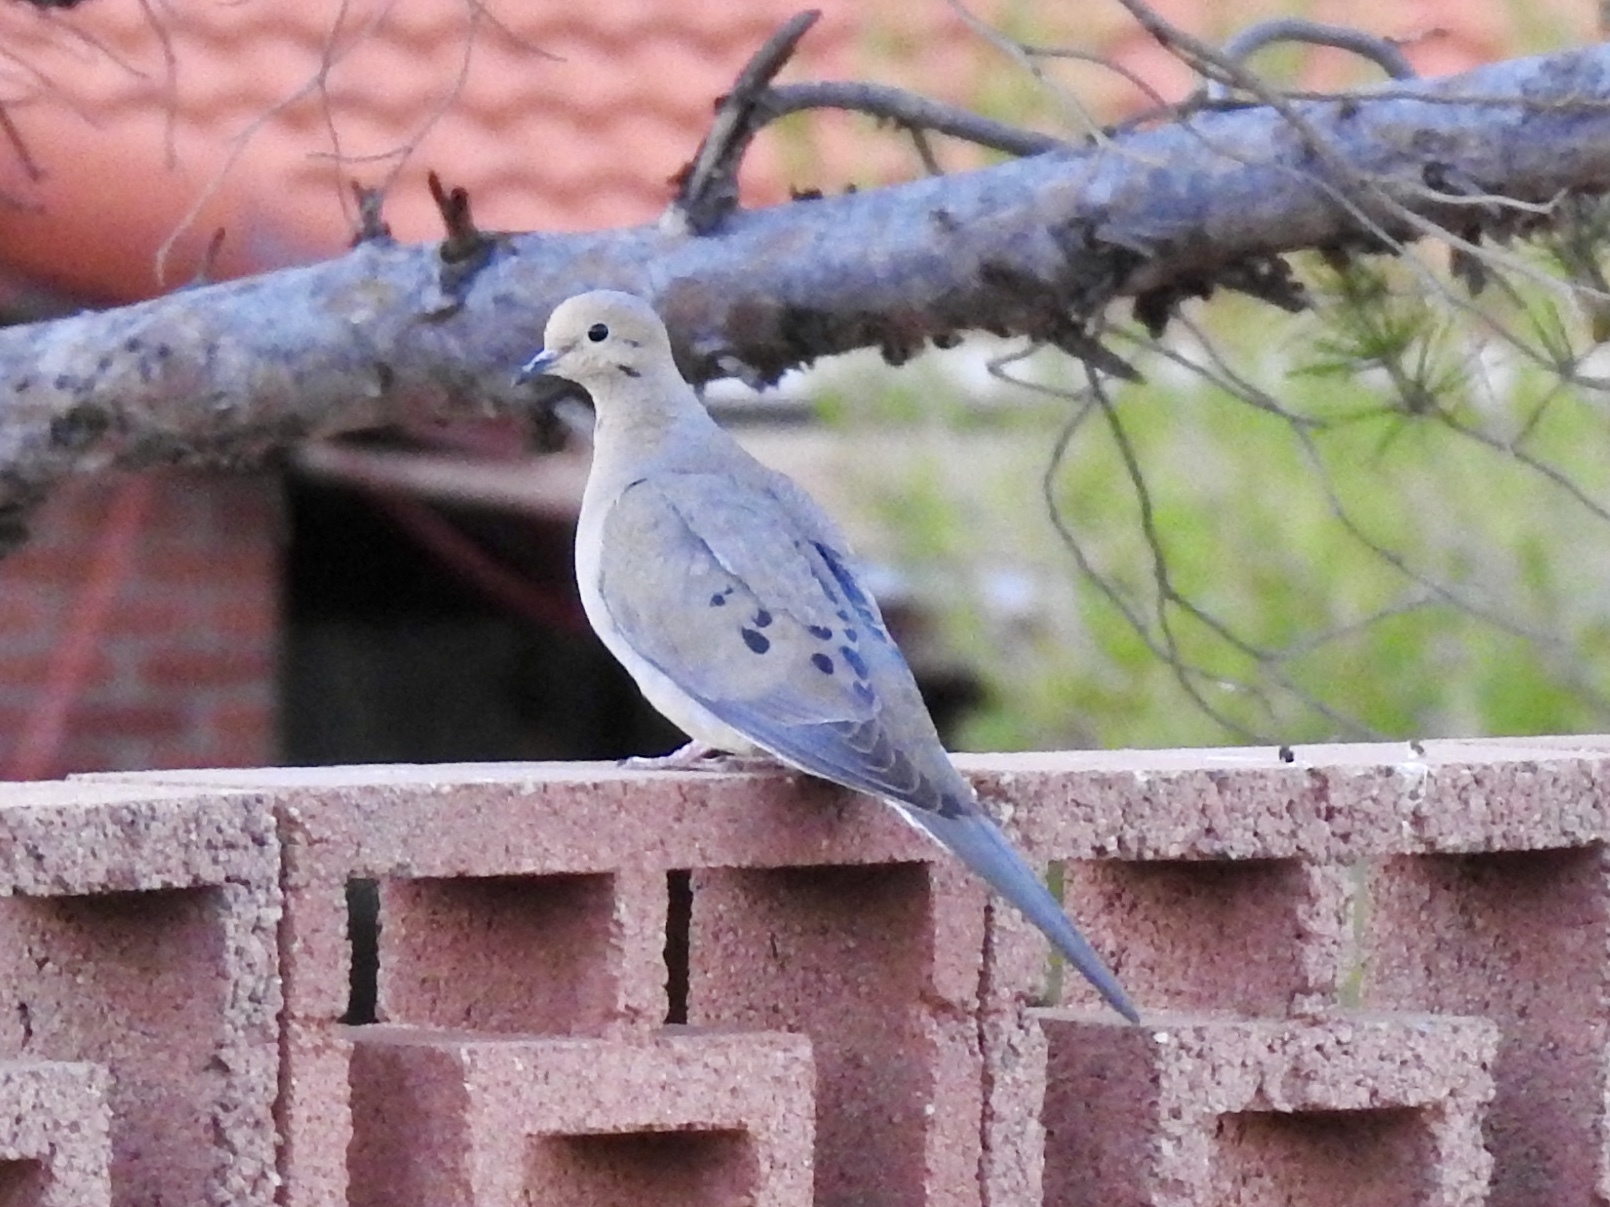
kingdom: Animalia
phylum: Chordata
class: Aves
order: Columbiformes
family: Columbidae
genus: Zenaida
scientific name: Zenaida macroura
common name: Mourning dove
